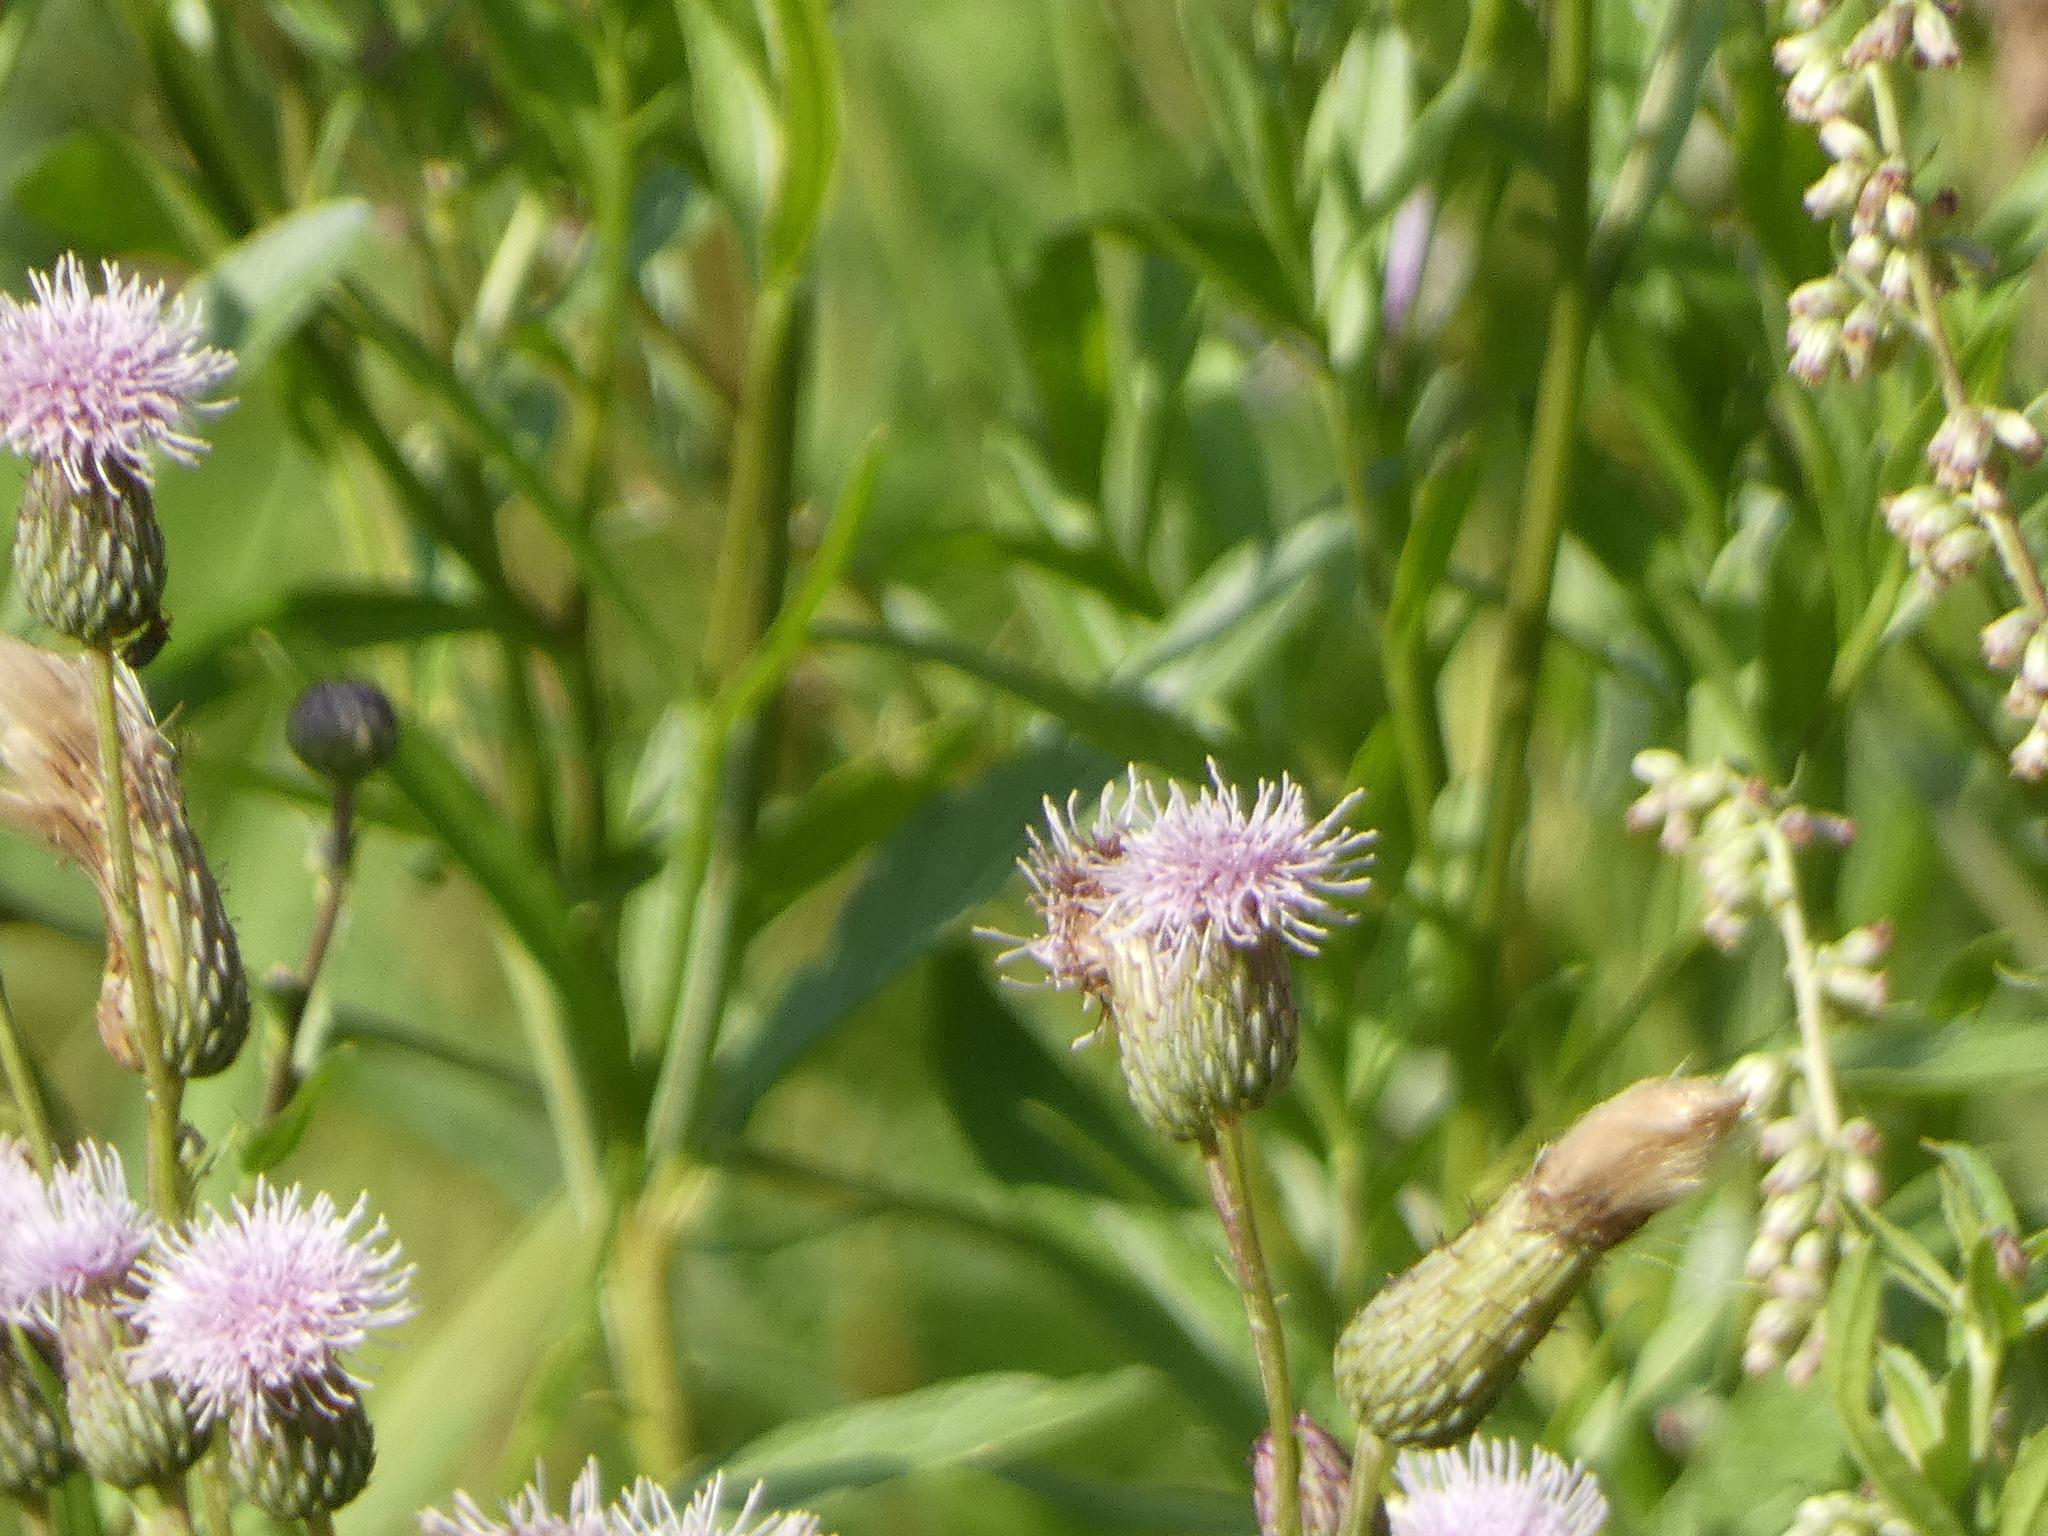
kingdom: Plantae
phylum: Tracheophyta
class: Magnoliopsida
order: Asterales
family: Asteraceae
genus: Cirsium
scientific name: Cirsium arvense
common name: Creeping thistle
